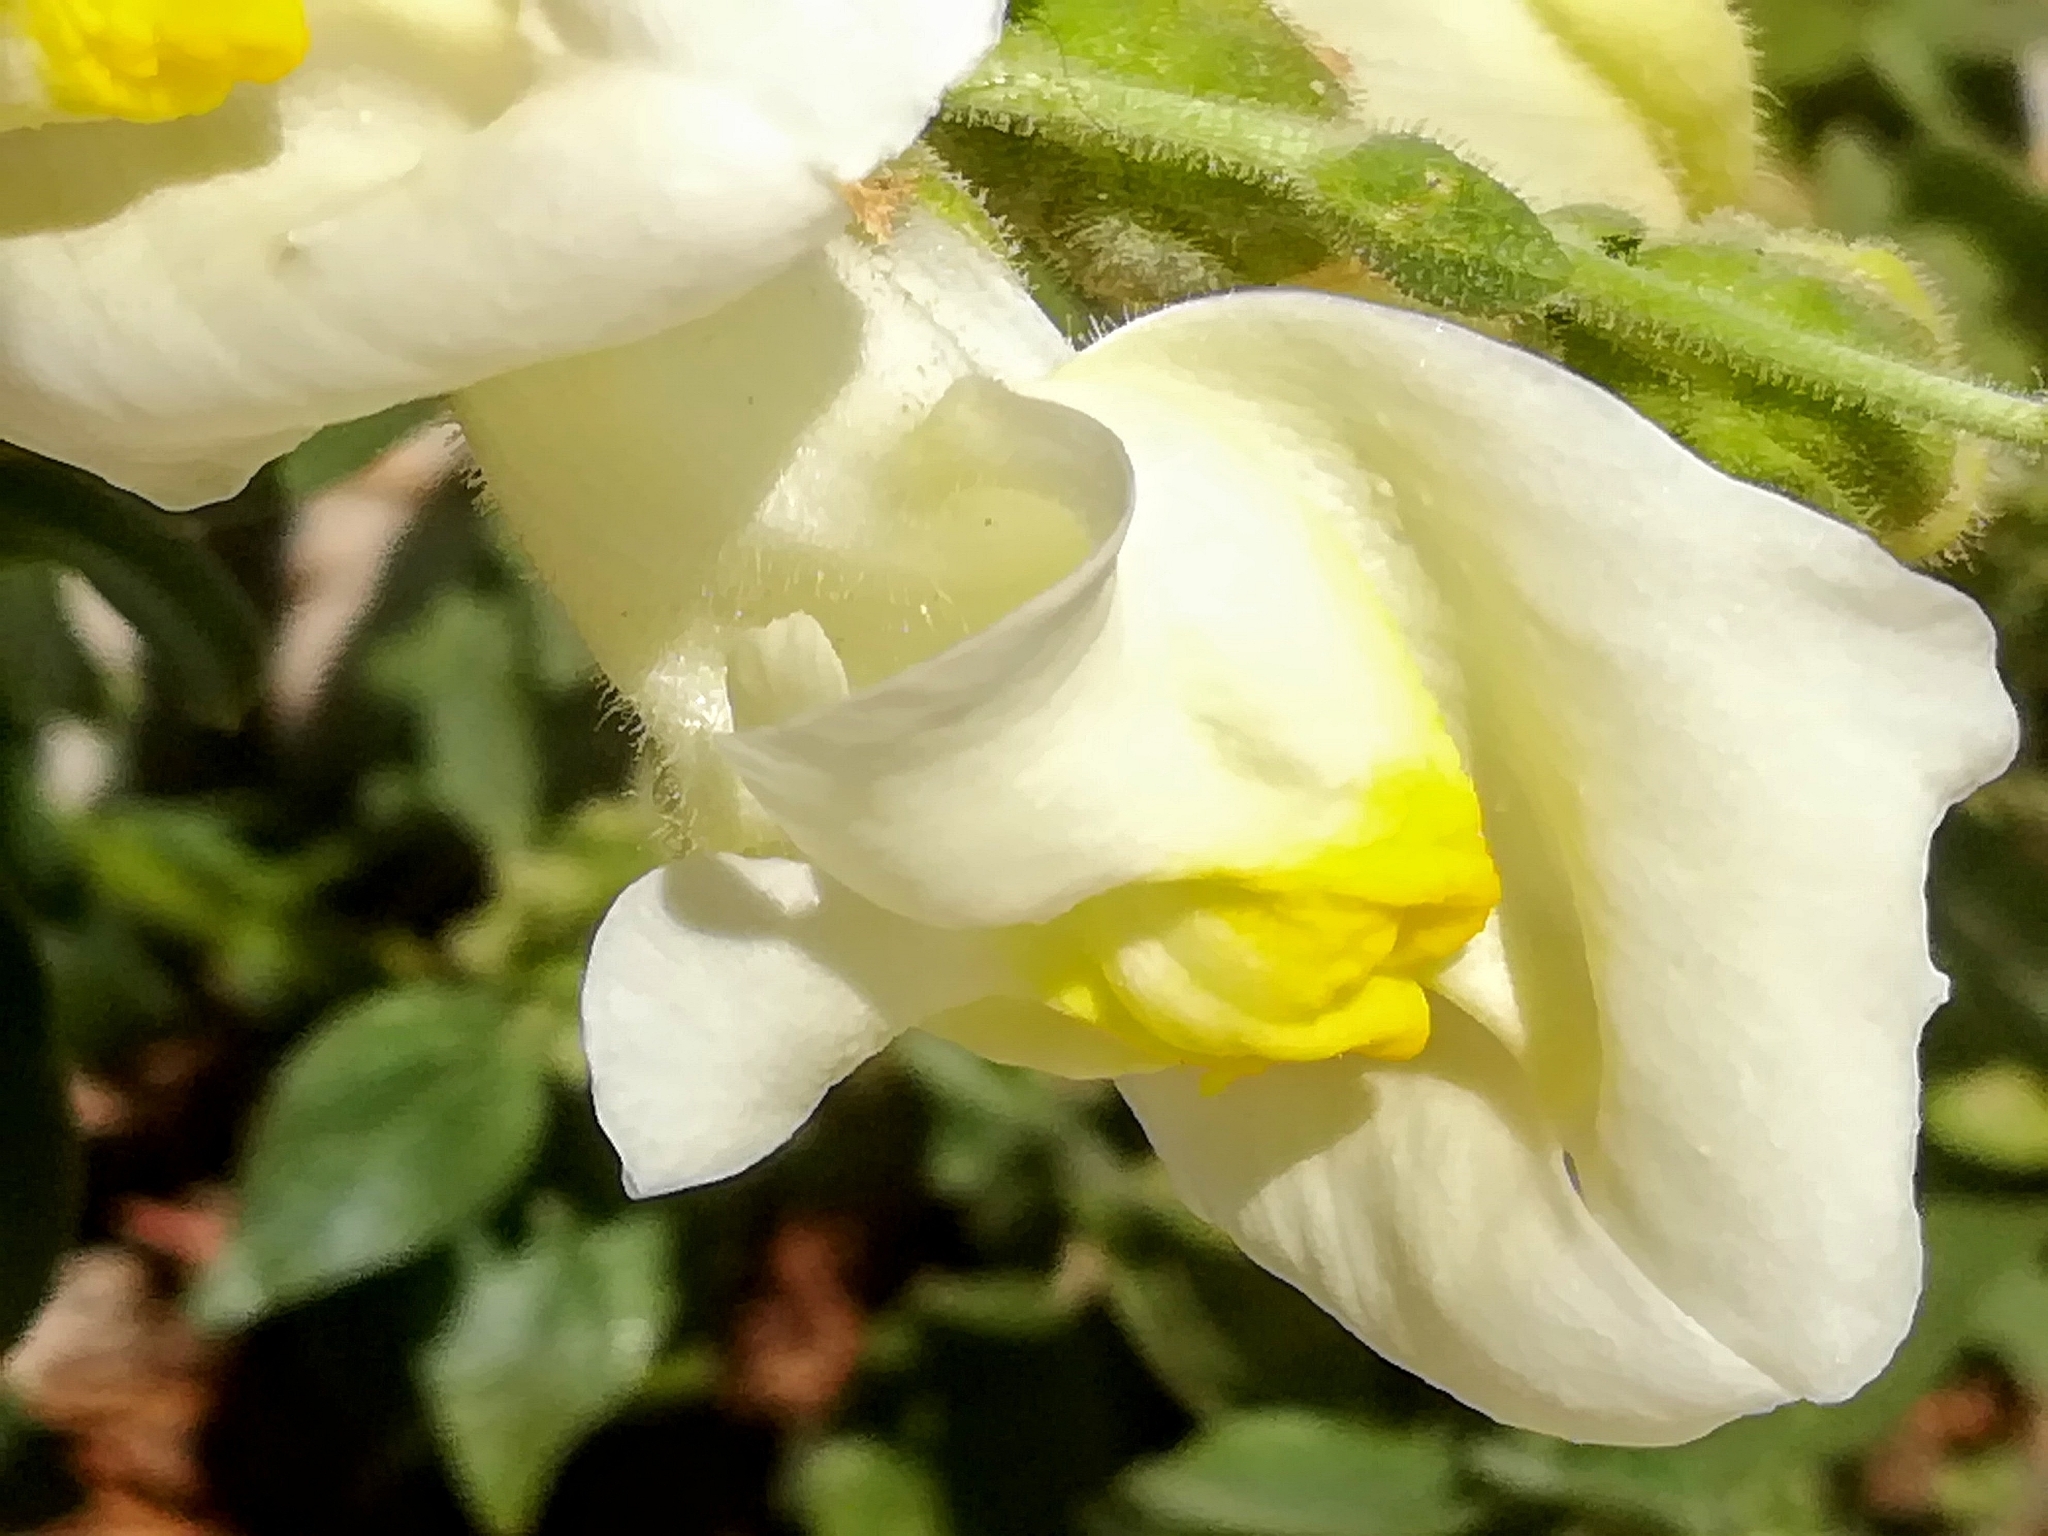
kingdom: Plantae
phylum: Tracheophyta
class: Magnoliopsida
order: Lamiales
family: Plantaginaceae
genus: Antirrhinum
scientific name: Antirrhinum majus
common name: Snapdragon
